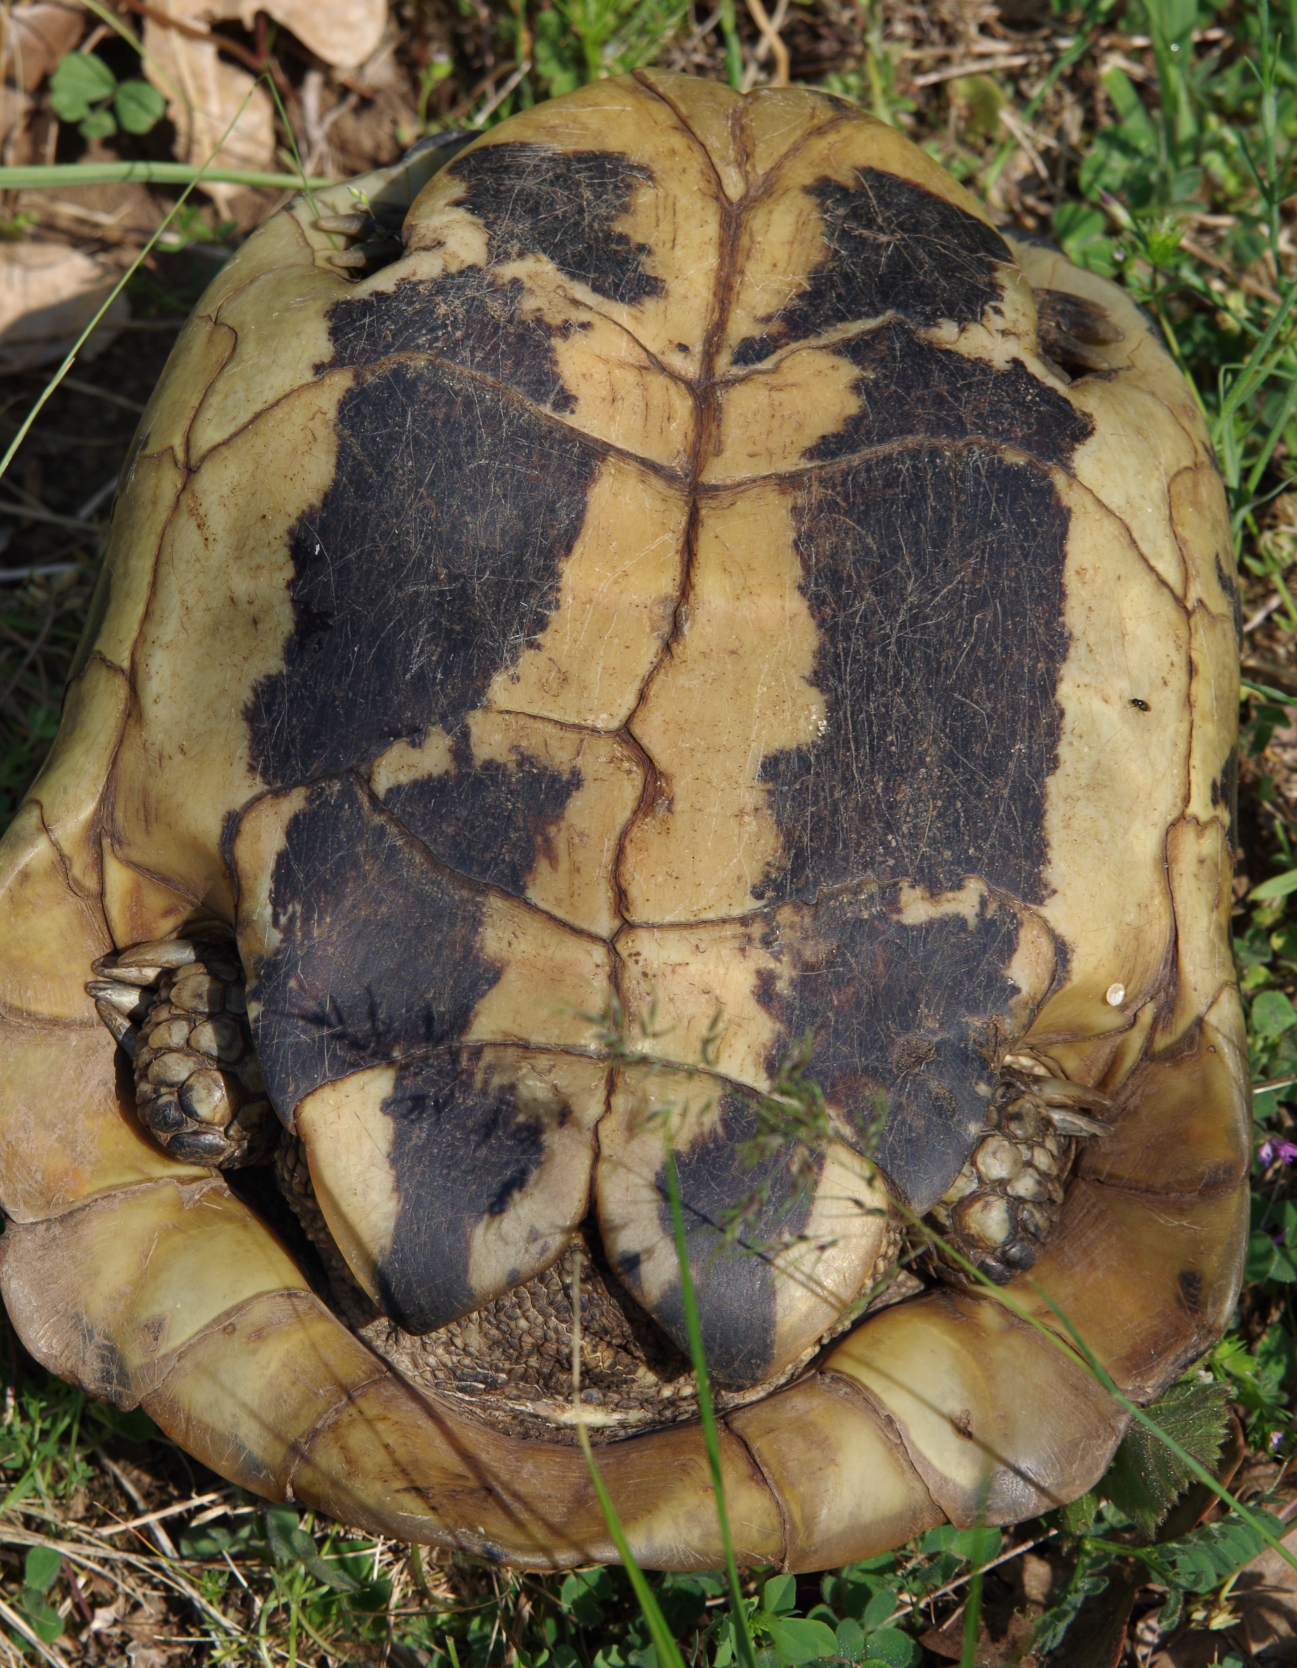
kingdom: Animalia
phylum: Chordata
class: Testudines
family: Testudinidae
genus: Testudo
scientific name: Testudo hermanni
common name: Hermann's tortoise
